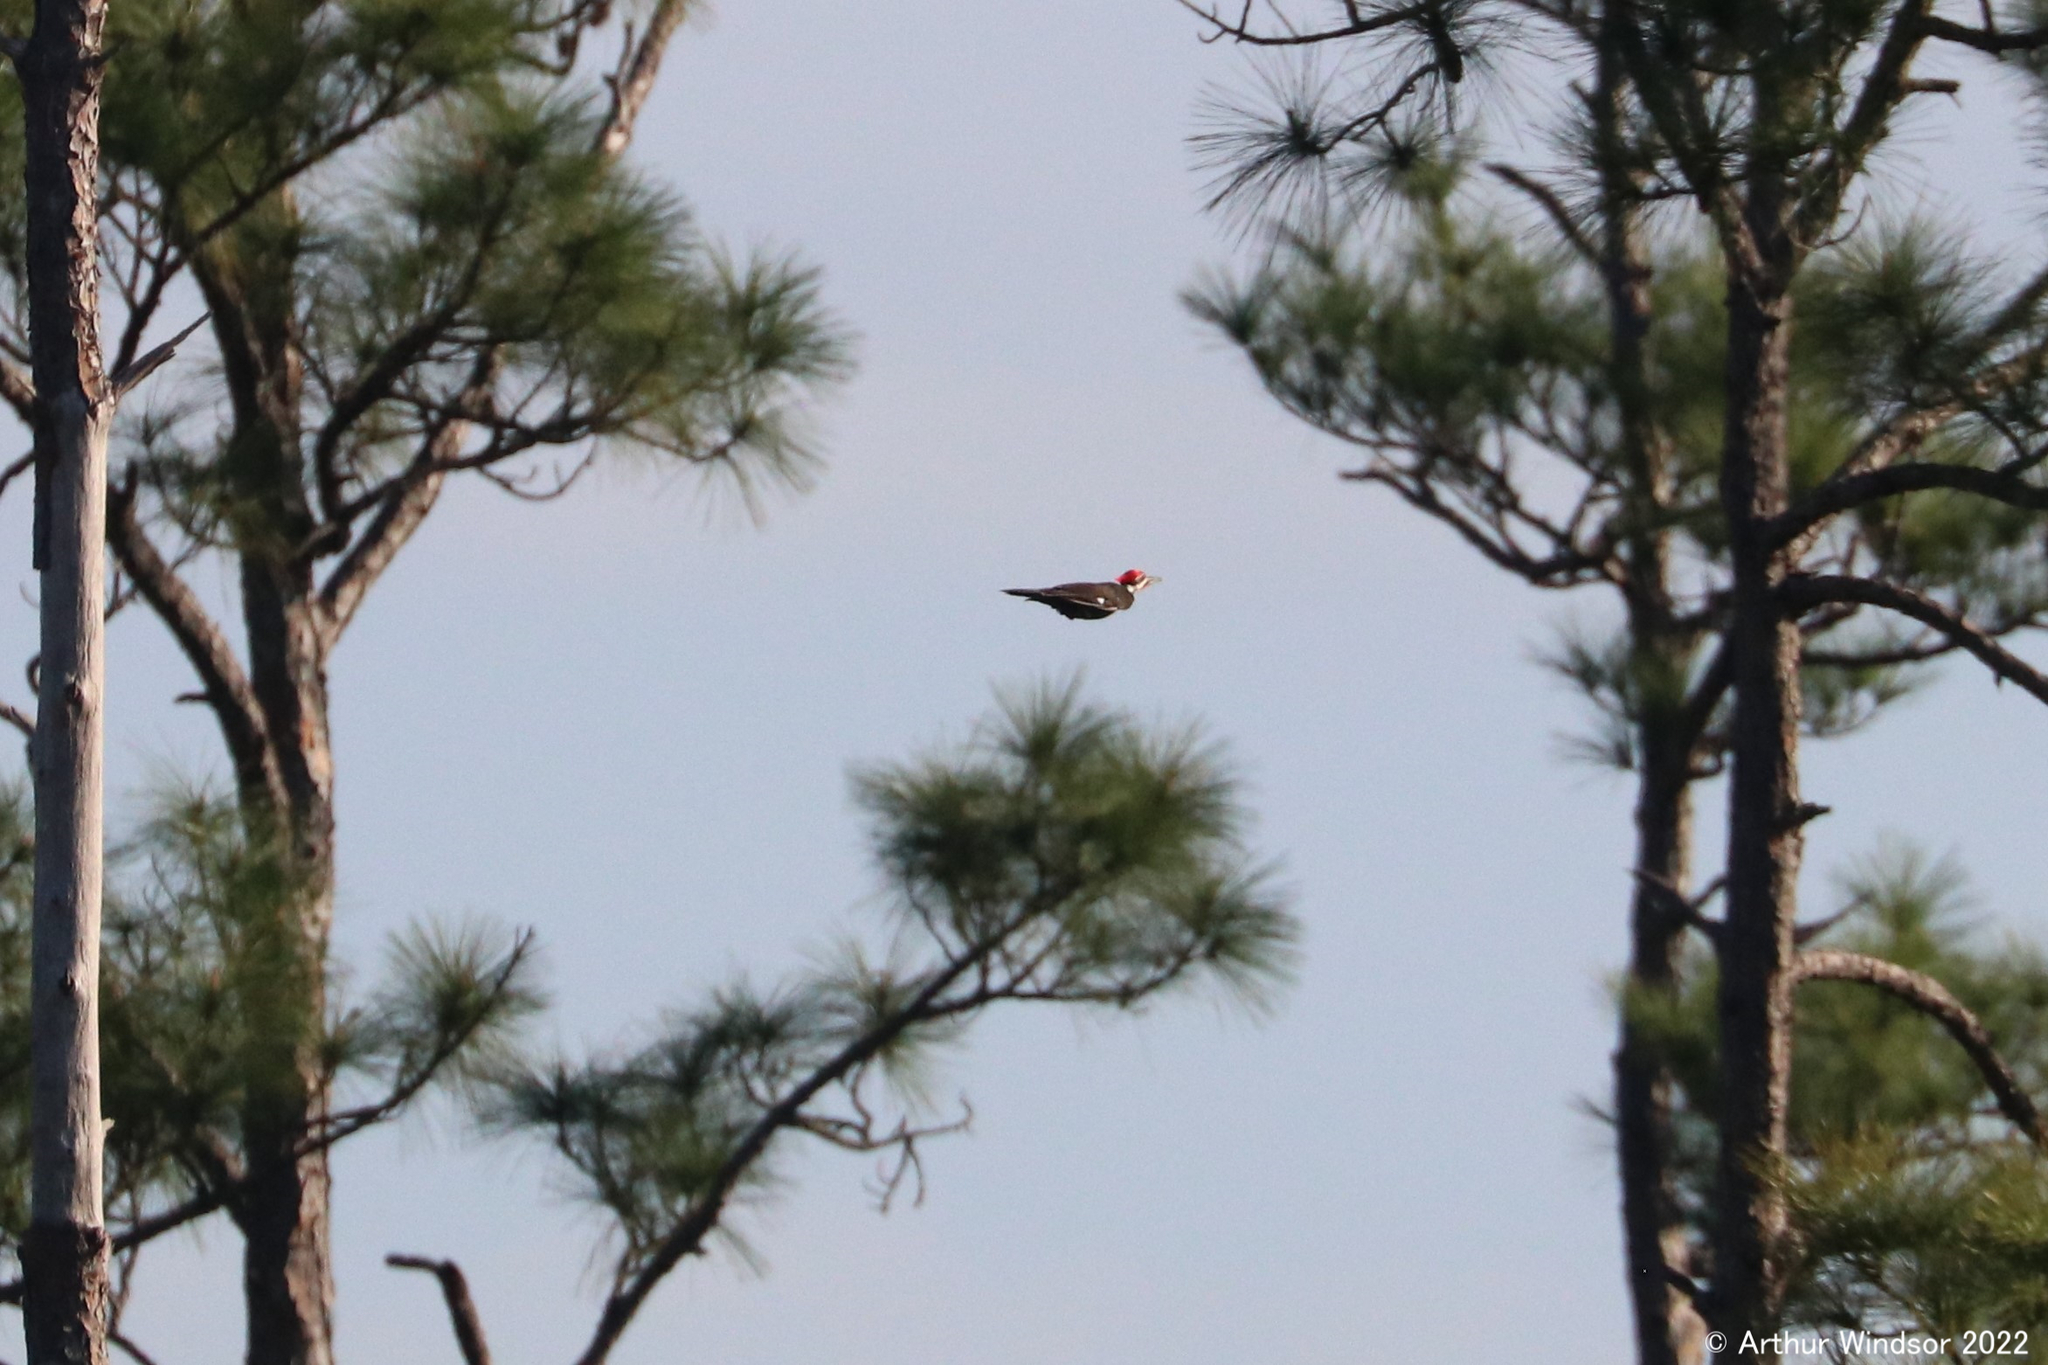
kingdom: Animalia
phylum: Chordata
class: Aves
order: Piciformes
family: Picidae
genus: Dryocopus
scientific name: Dryocopus pileatus
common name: Pileated woodpecker
